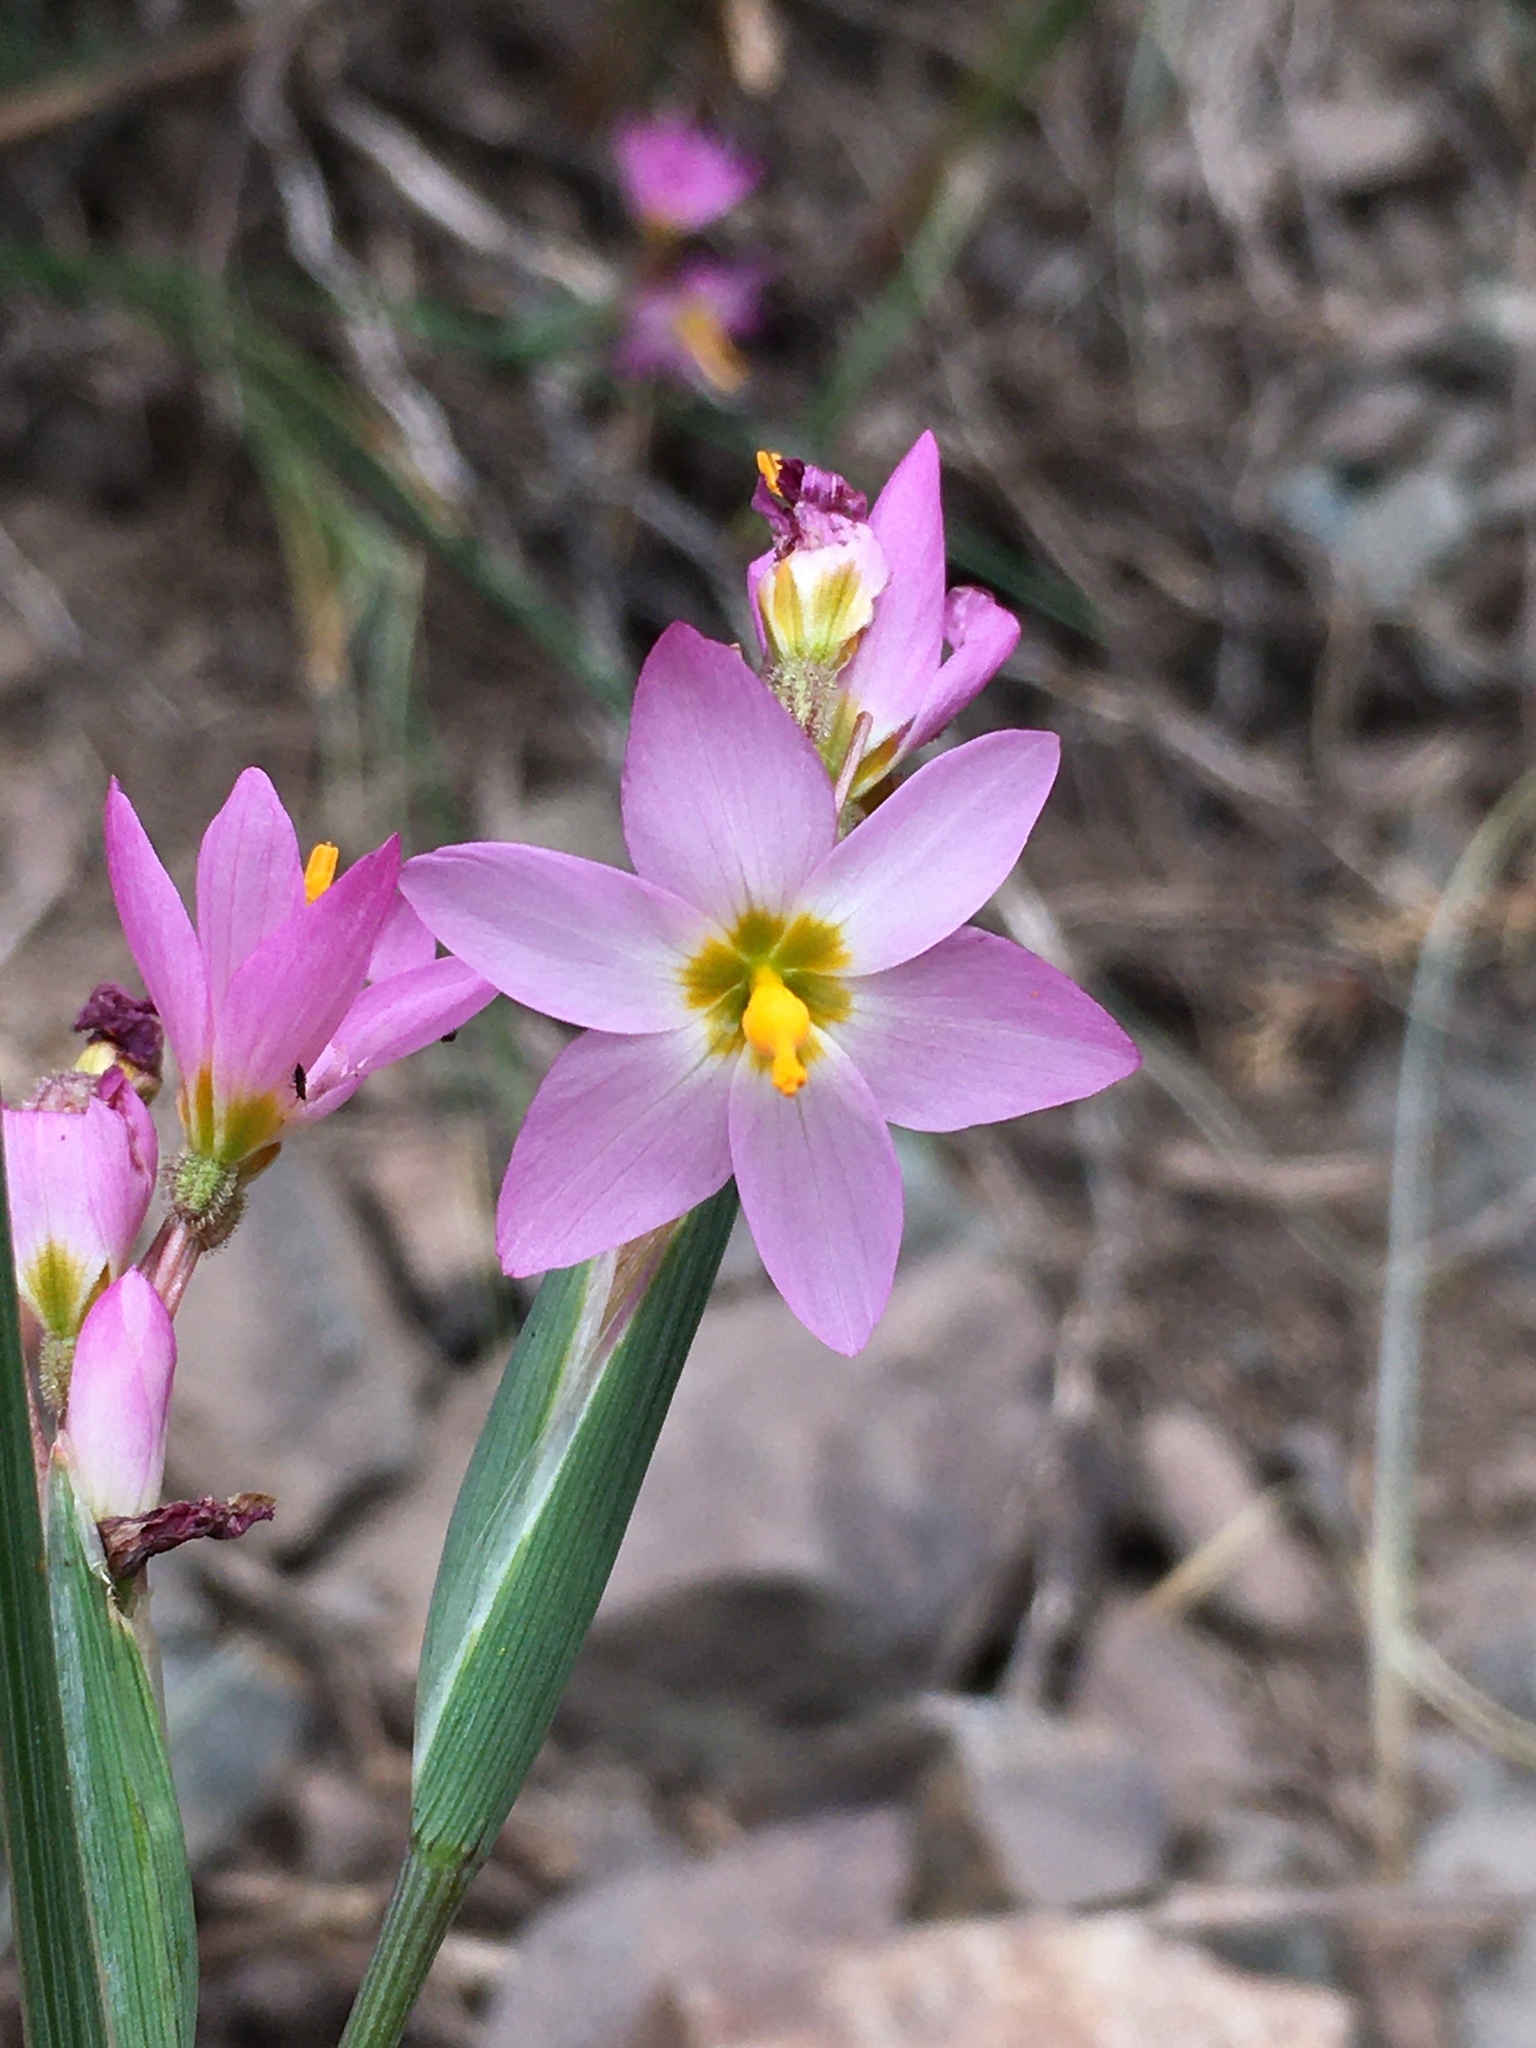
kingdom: Plantae
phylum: Tracheophyta
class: Liliopsida
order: Asparagales
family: Iridaceae
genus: Olsynium
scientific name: Olsynium scirpoideum
